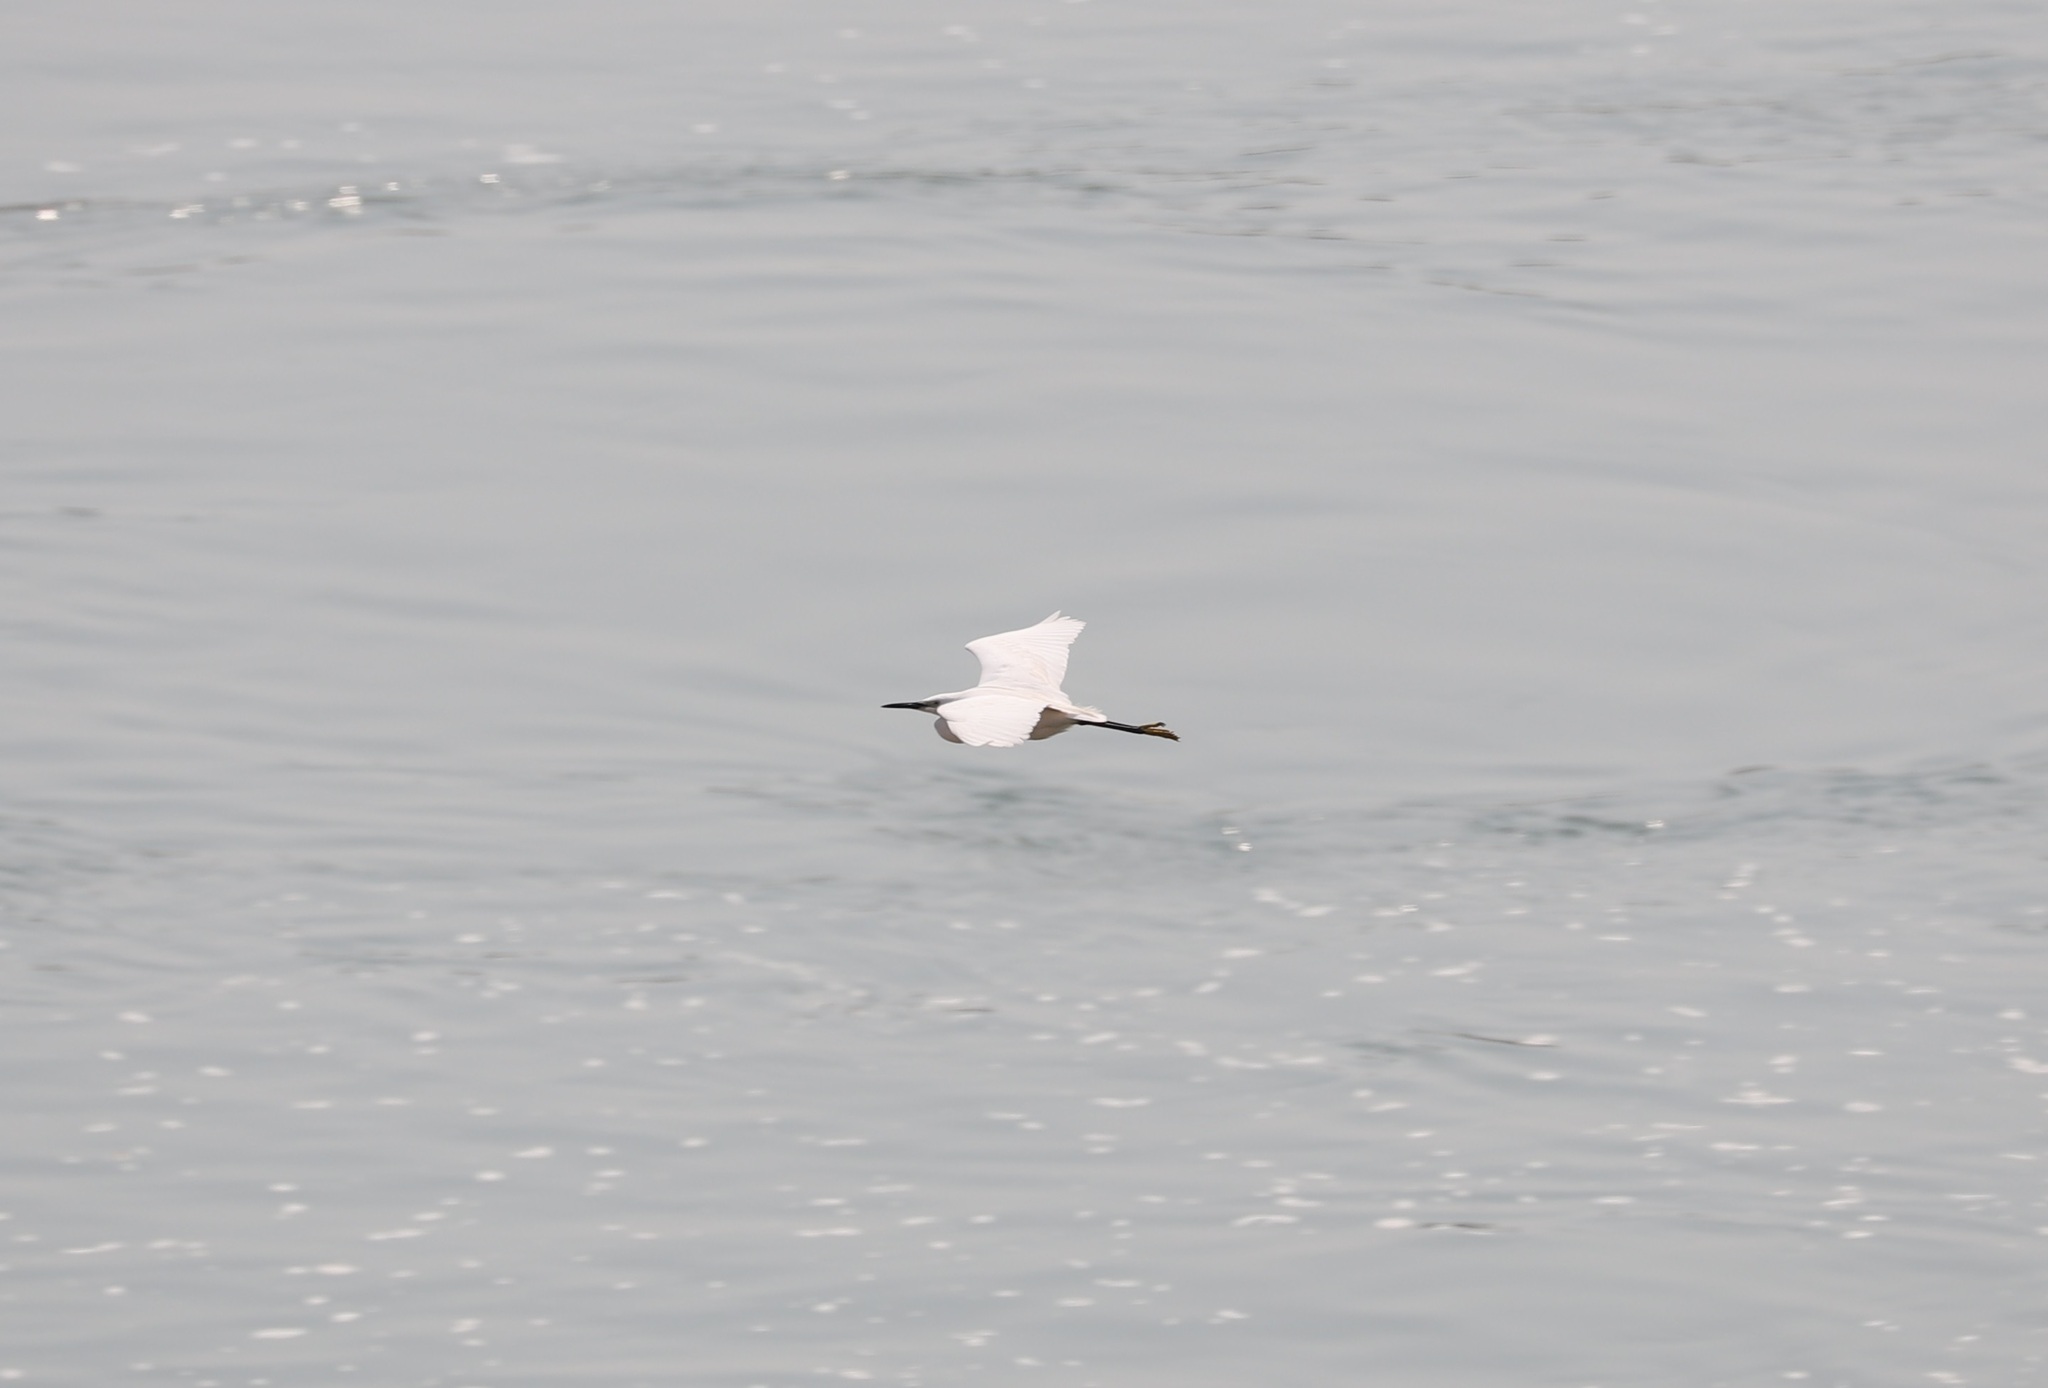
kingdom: Animalia
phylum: Chordata
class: Aves
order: Pelecaniformes
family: Ardeidae
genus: Egretta
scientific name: Egretta garzetta
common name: Little egret
